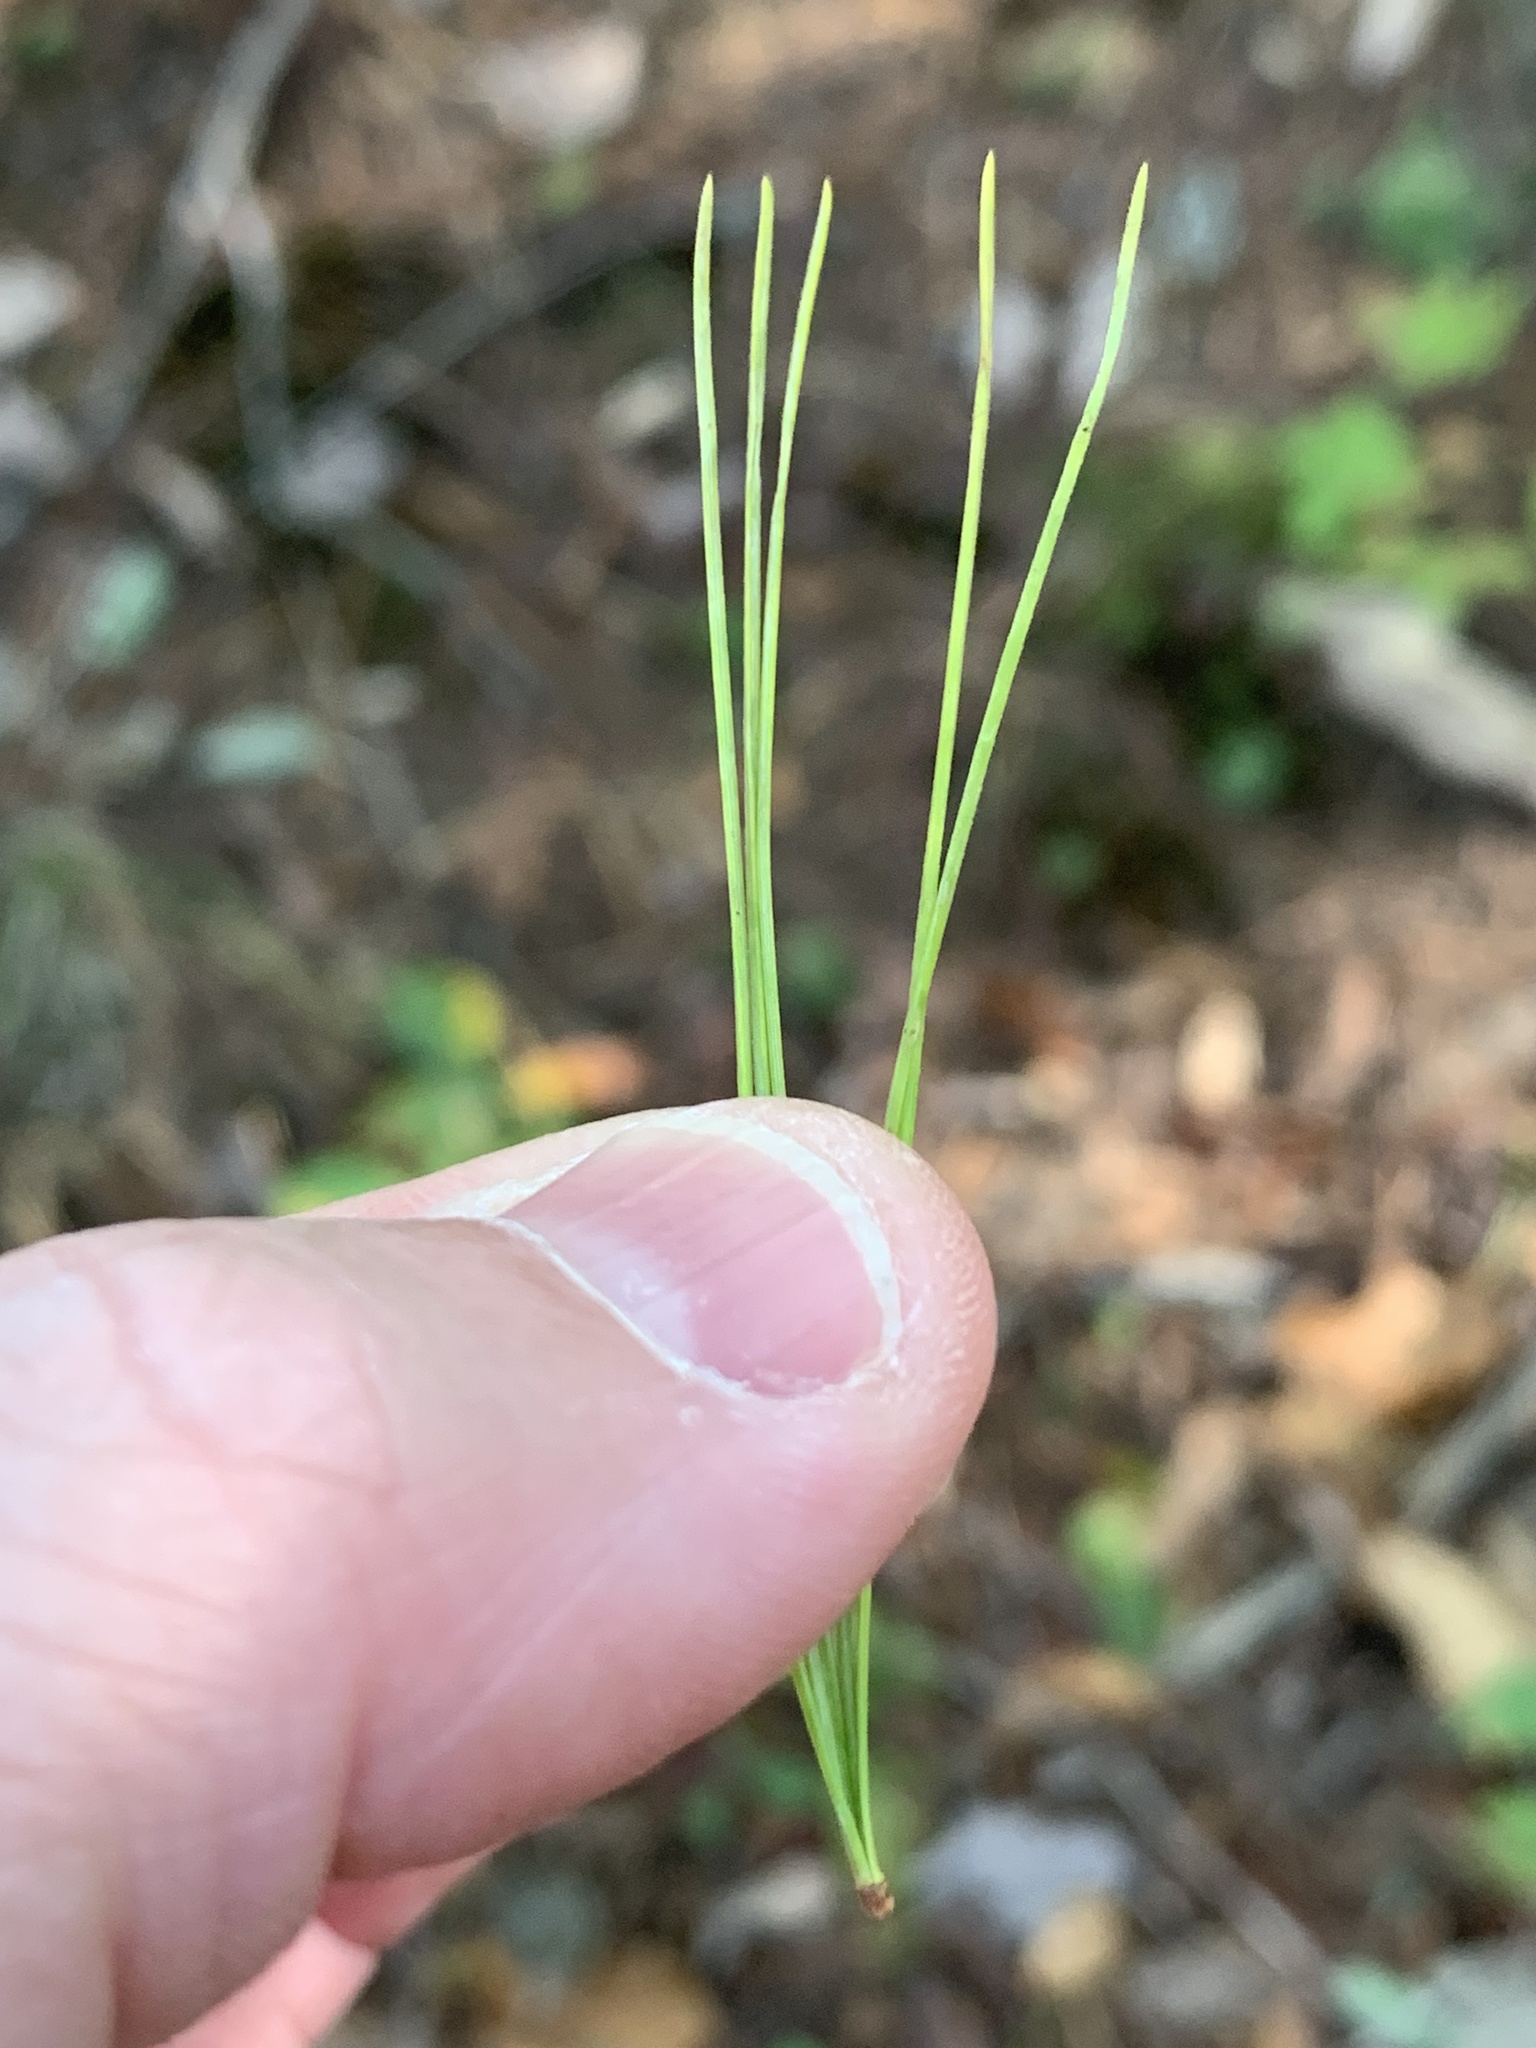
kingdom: Plantae
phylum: Tracheophyta
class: Pinopsida
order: Pinales
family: Pinaceae
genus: Pinus
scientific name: Pinus strobus
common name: Weymouth pine
